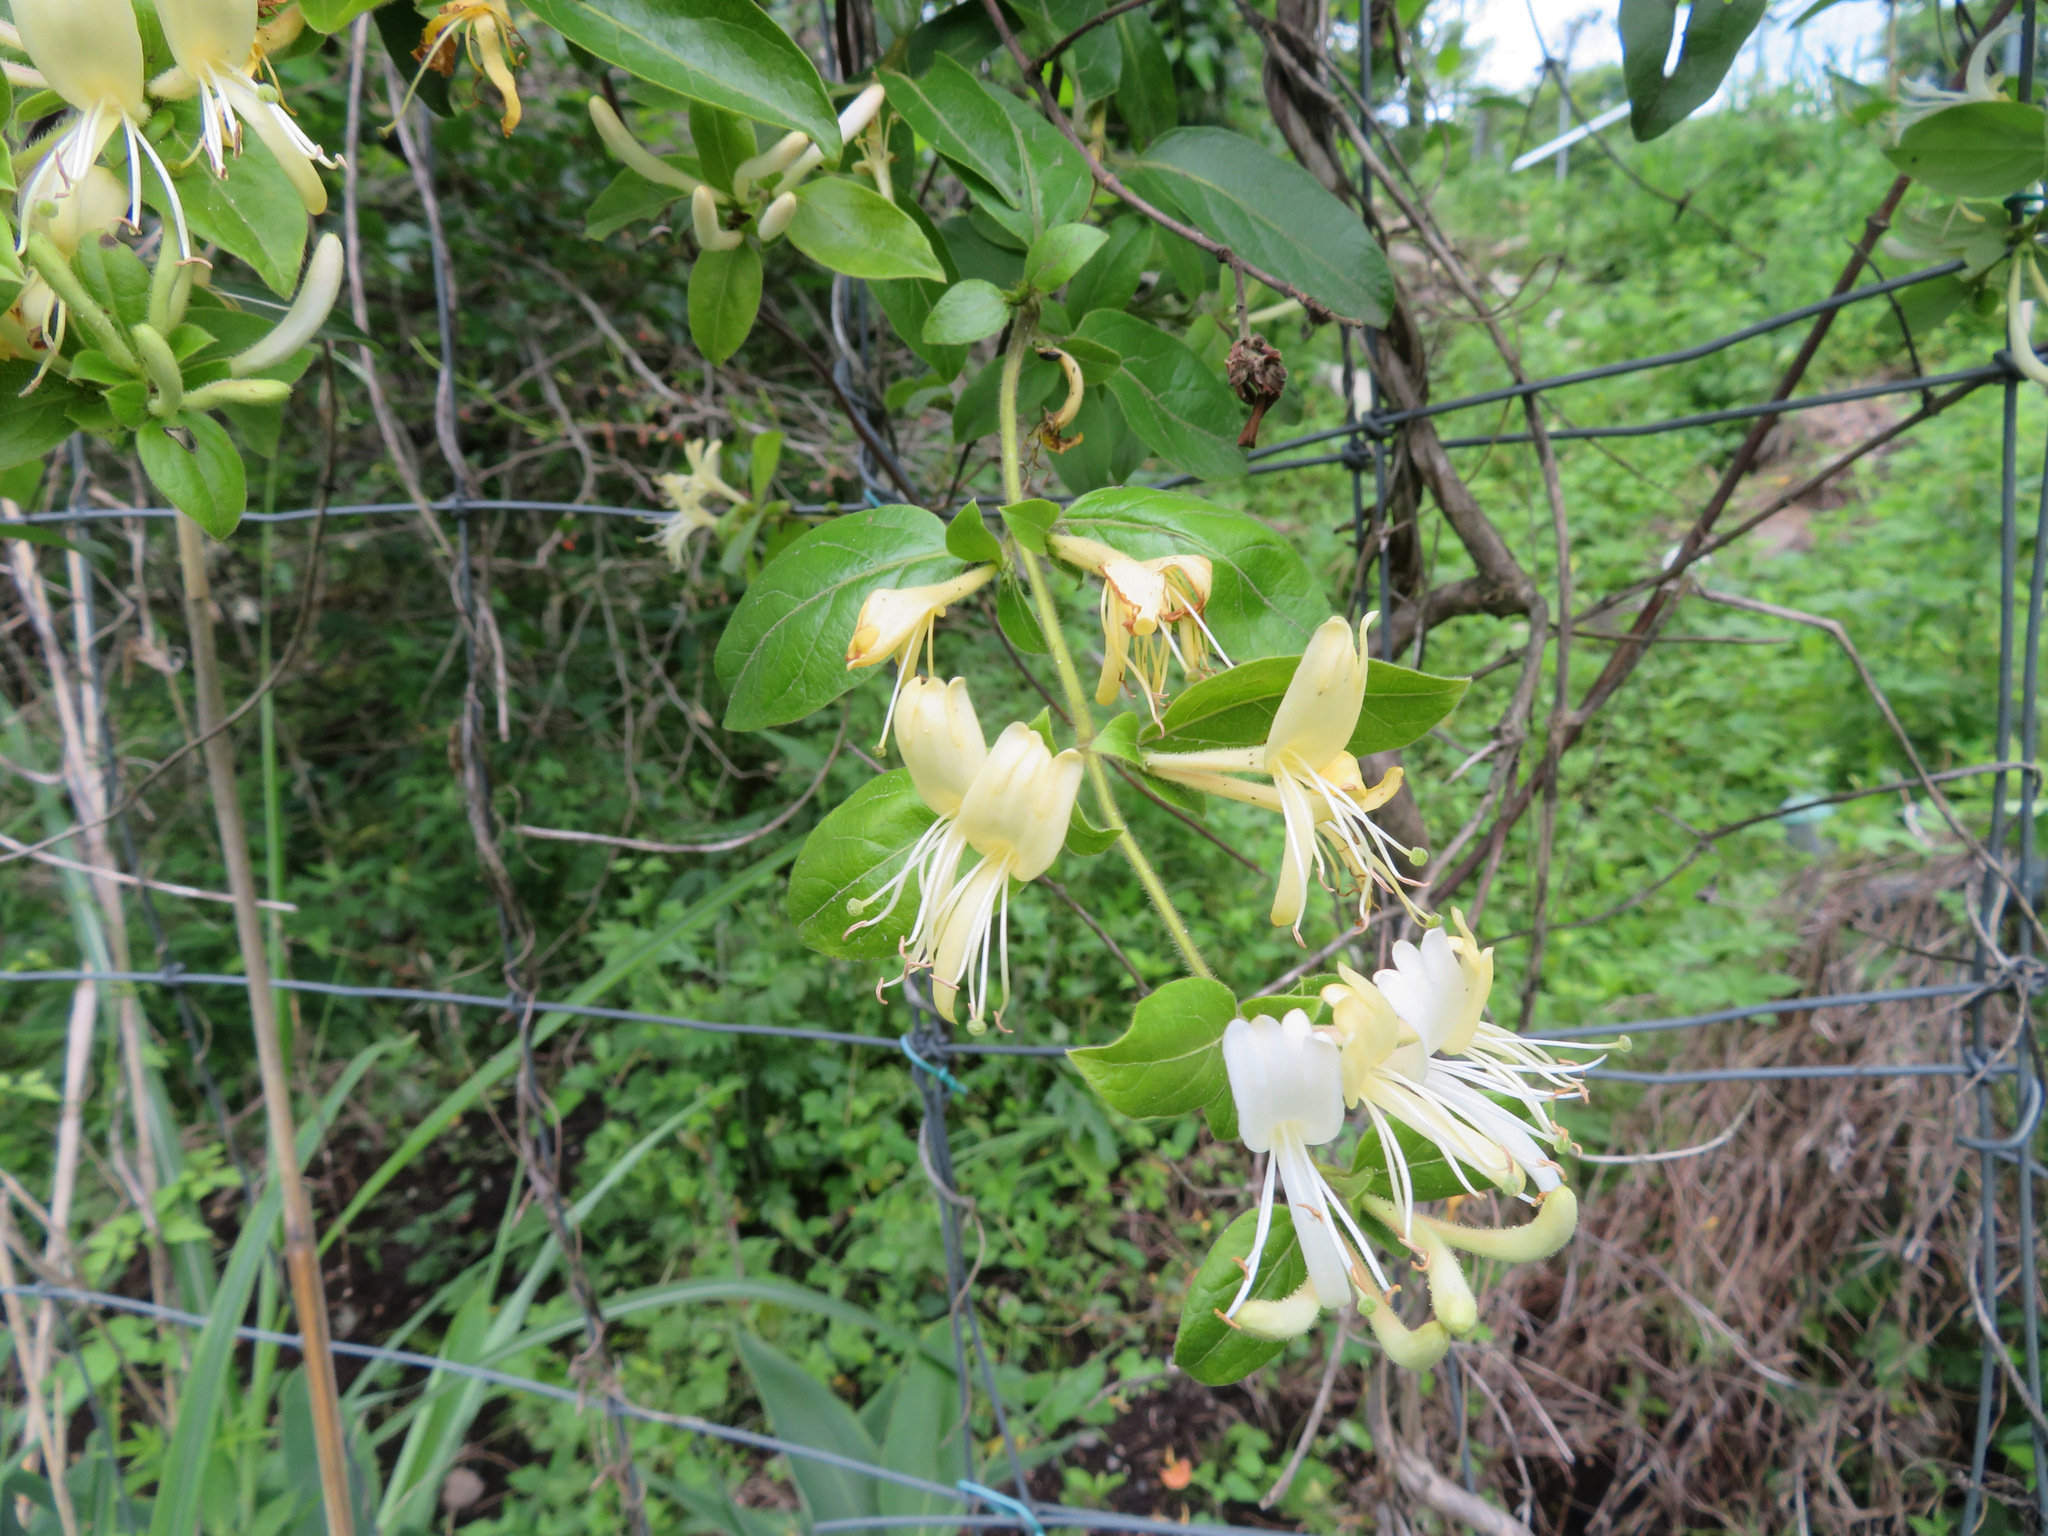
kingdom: Plantae
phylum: Tracheophyta
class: Magnoliopsida
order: Dipsacales
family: Caprifoliaceae
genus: Lonicera
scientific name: Lonicera japonica
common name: Japanese honeysuckle
